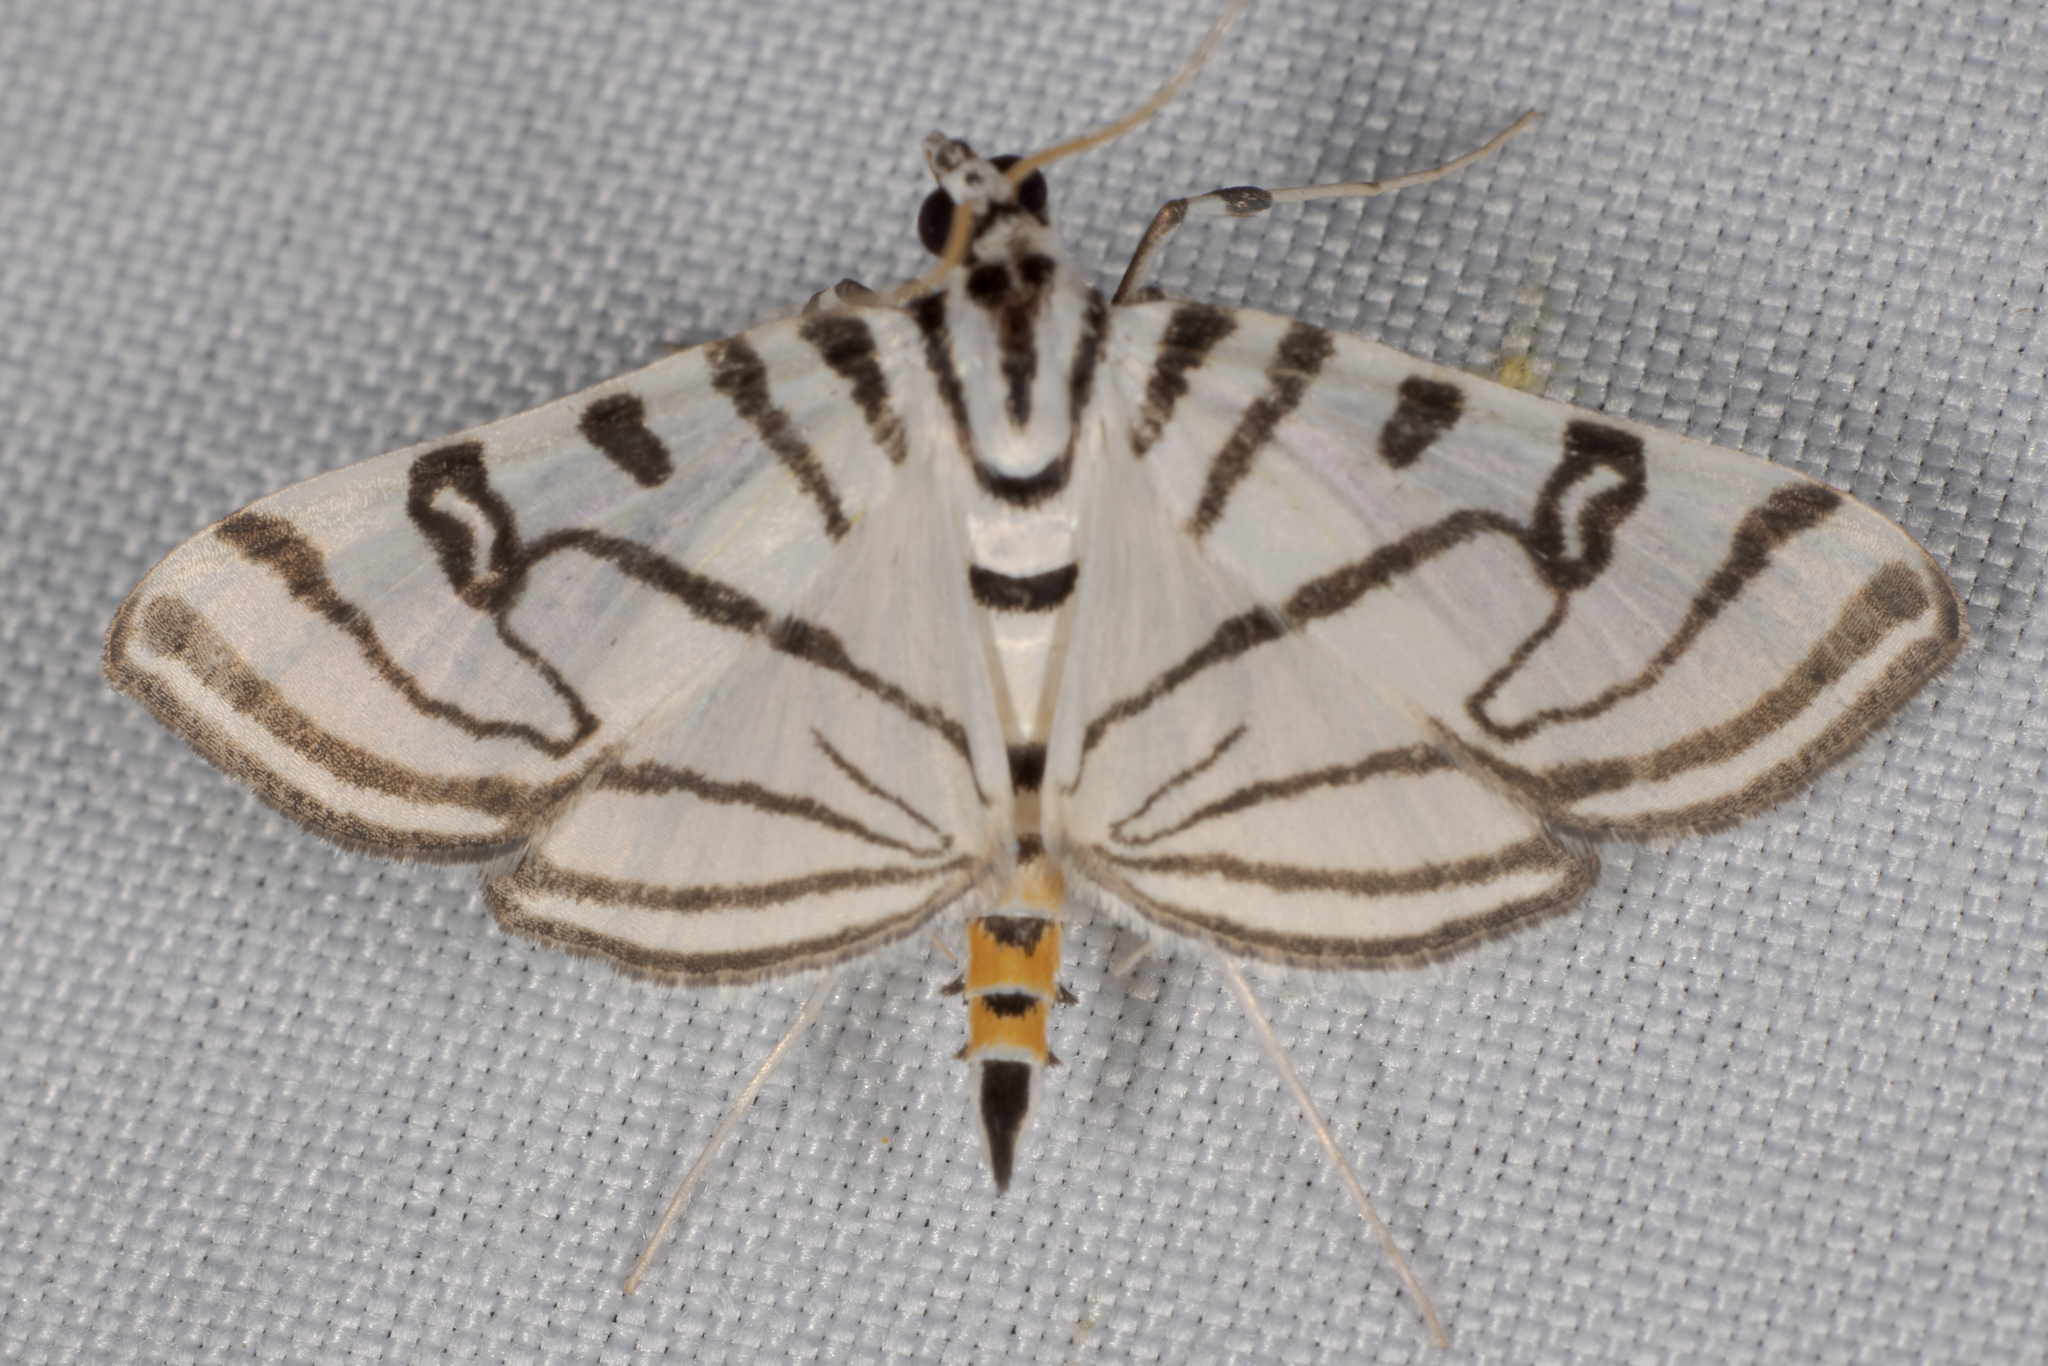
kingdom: Animalia
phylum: Arthropoda
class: Insecta
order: Lepidoptera
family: Crambidae
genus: Conchylodes
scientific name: Conchylodes ovulalis
